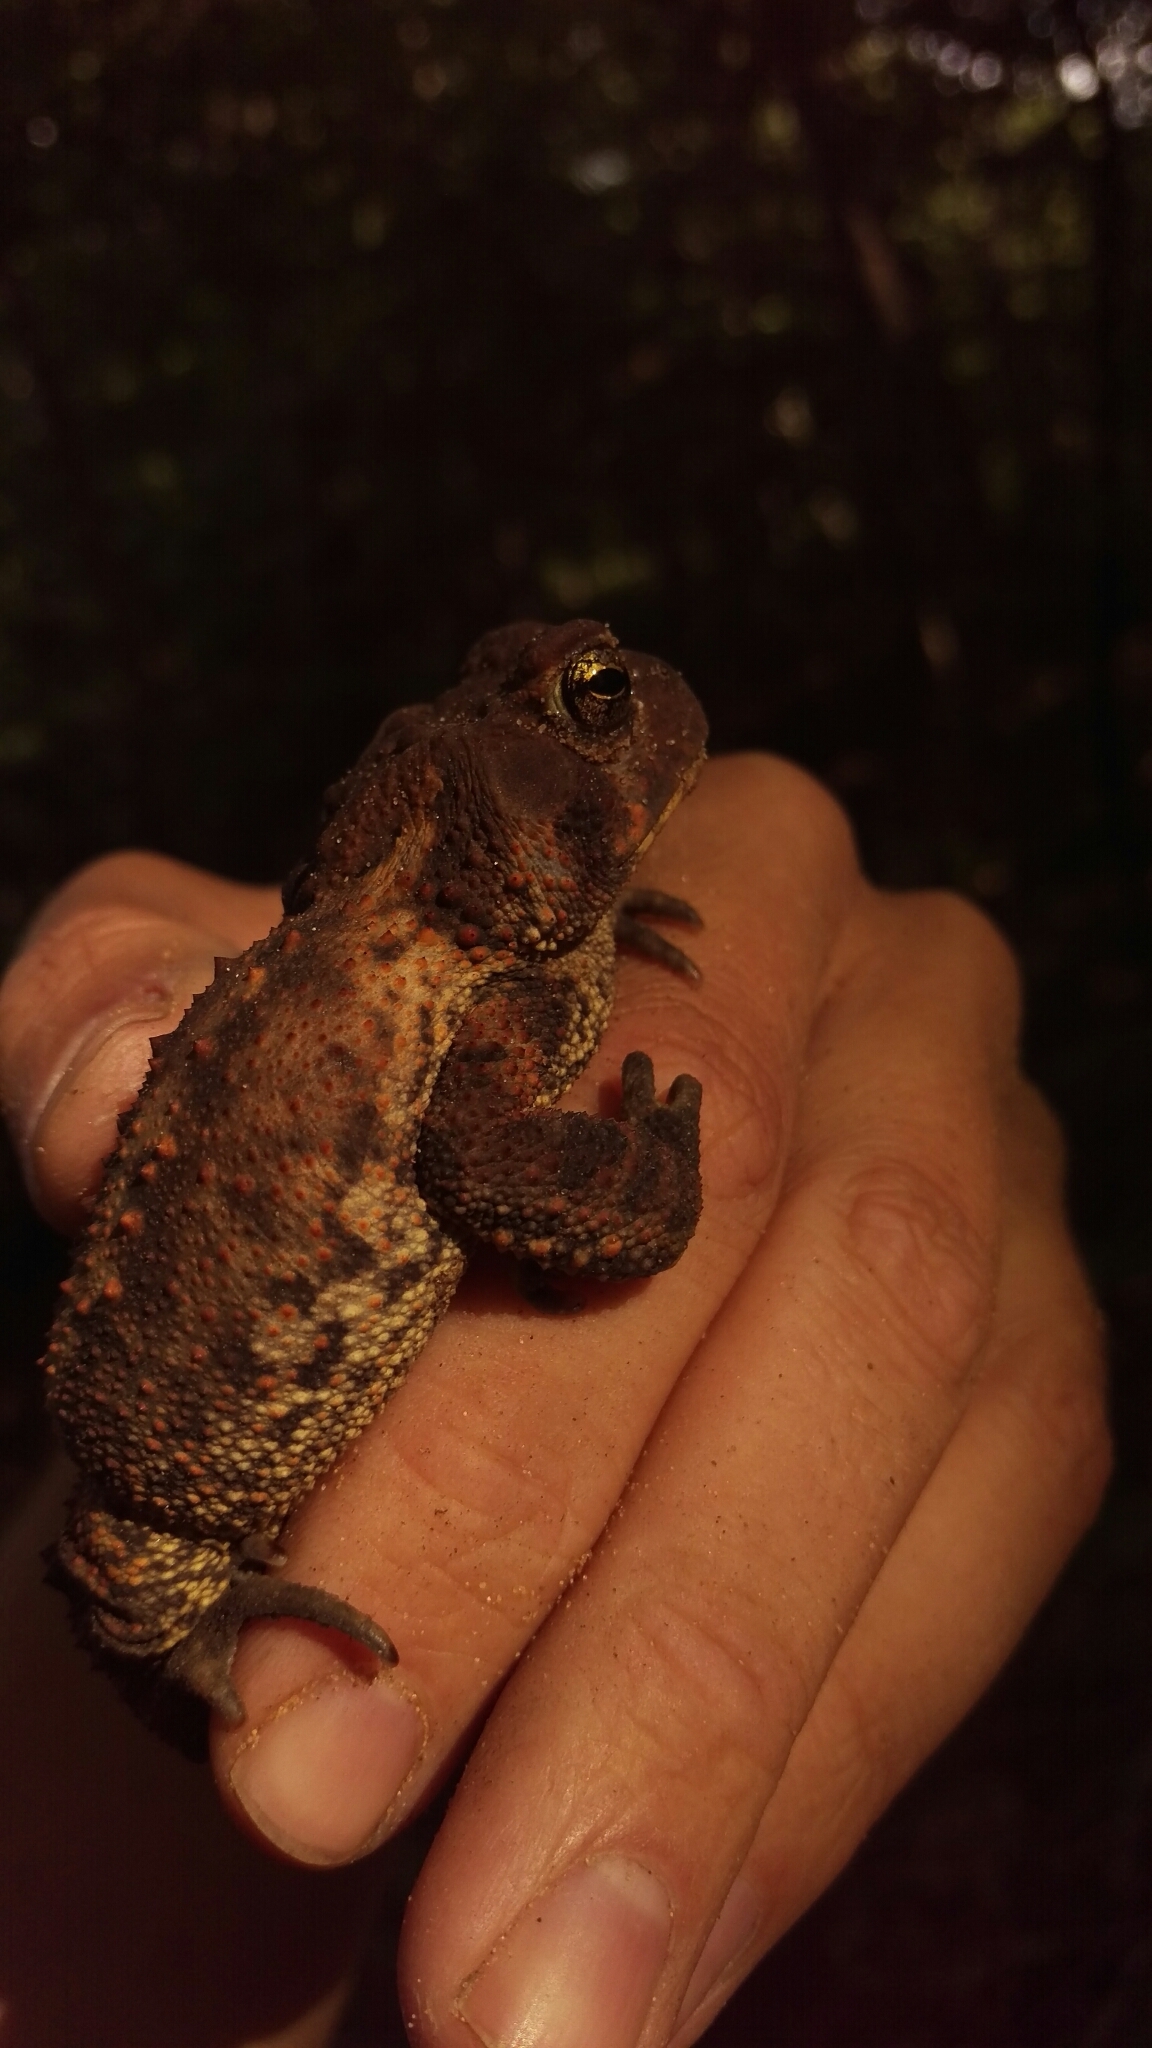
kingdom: Animalia
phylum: Chordata
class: Amphibia
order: Anura
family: Bufonidae
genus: Anaxyrus
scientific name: Anaxyrus americanus
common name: American toad
